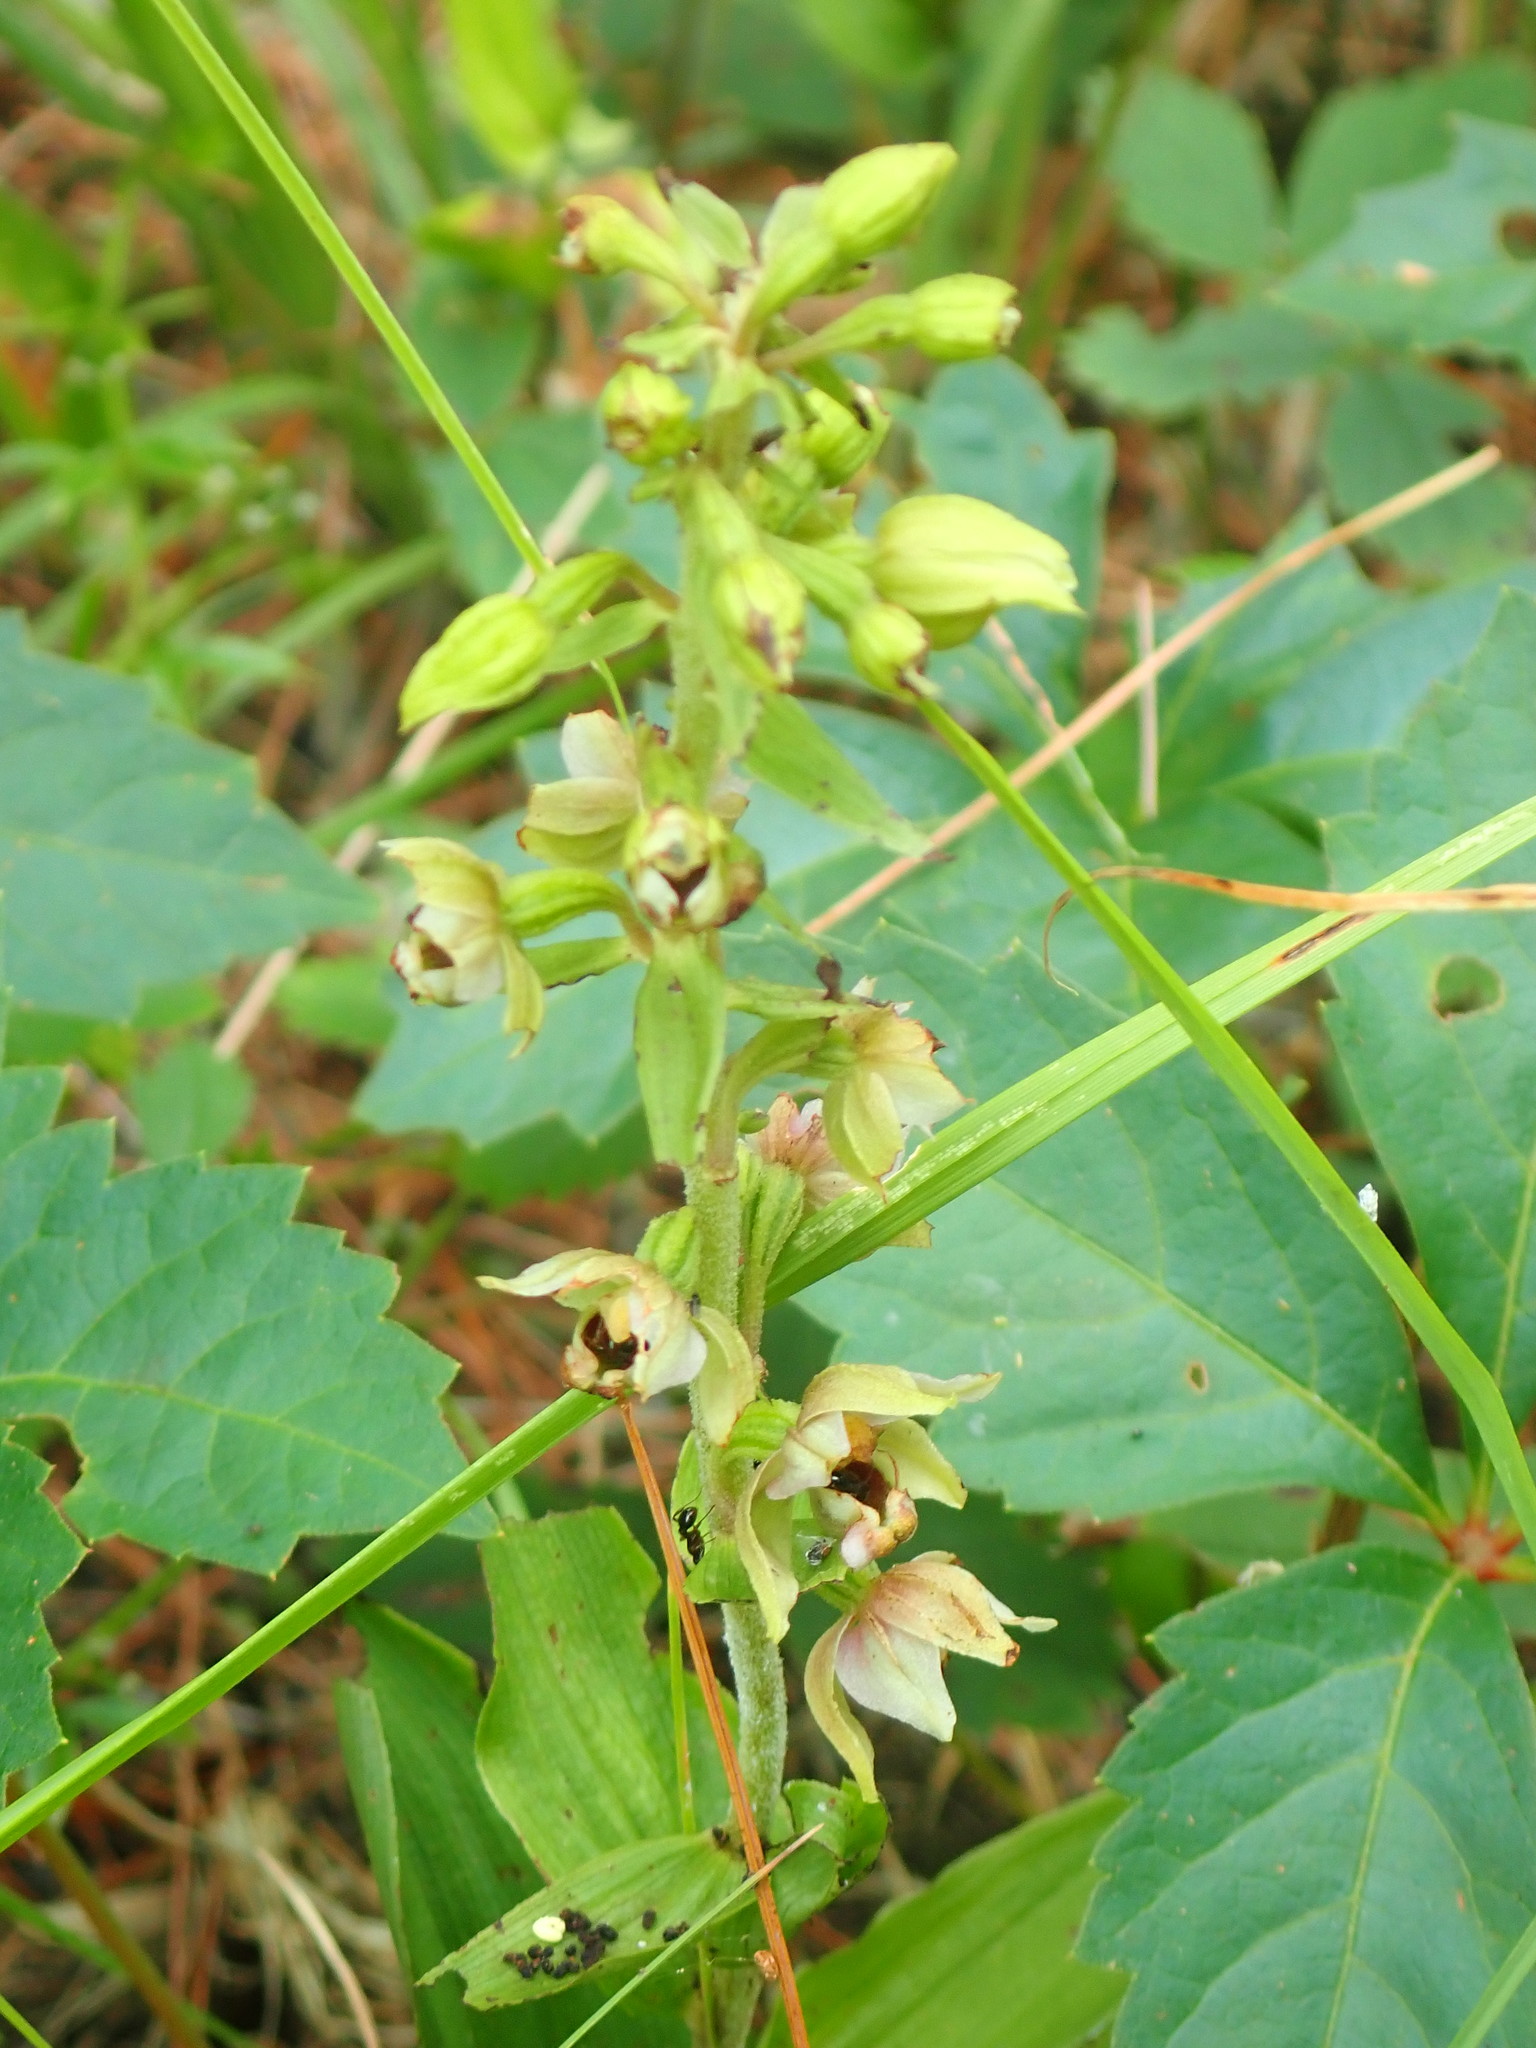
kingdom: Plantae
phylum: Tracheophyta
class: Liliopsida
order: Asparagales
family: Orchidaceae
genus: Epipactis
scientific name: Epipactis helleborine
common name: Broad-leaved helleborine
